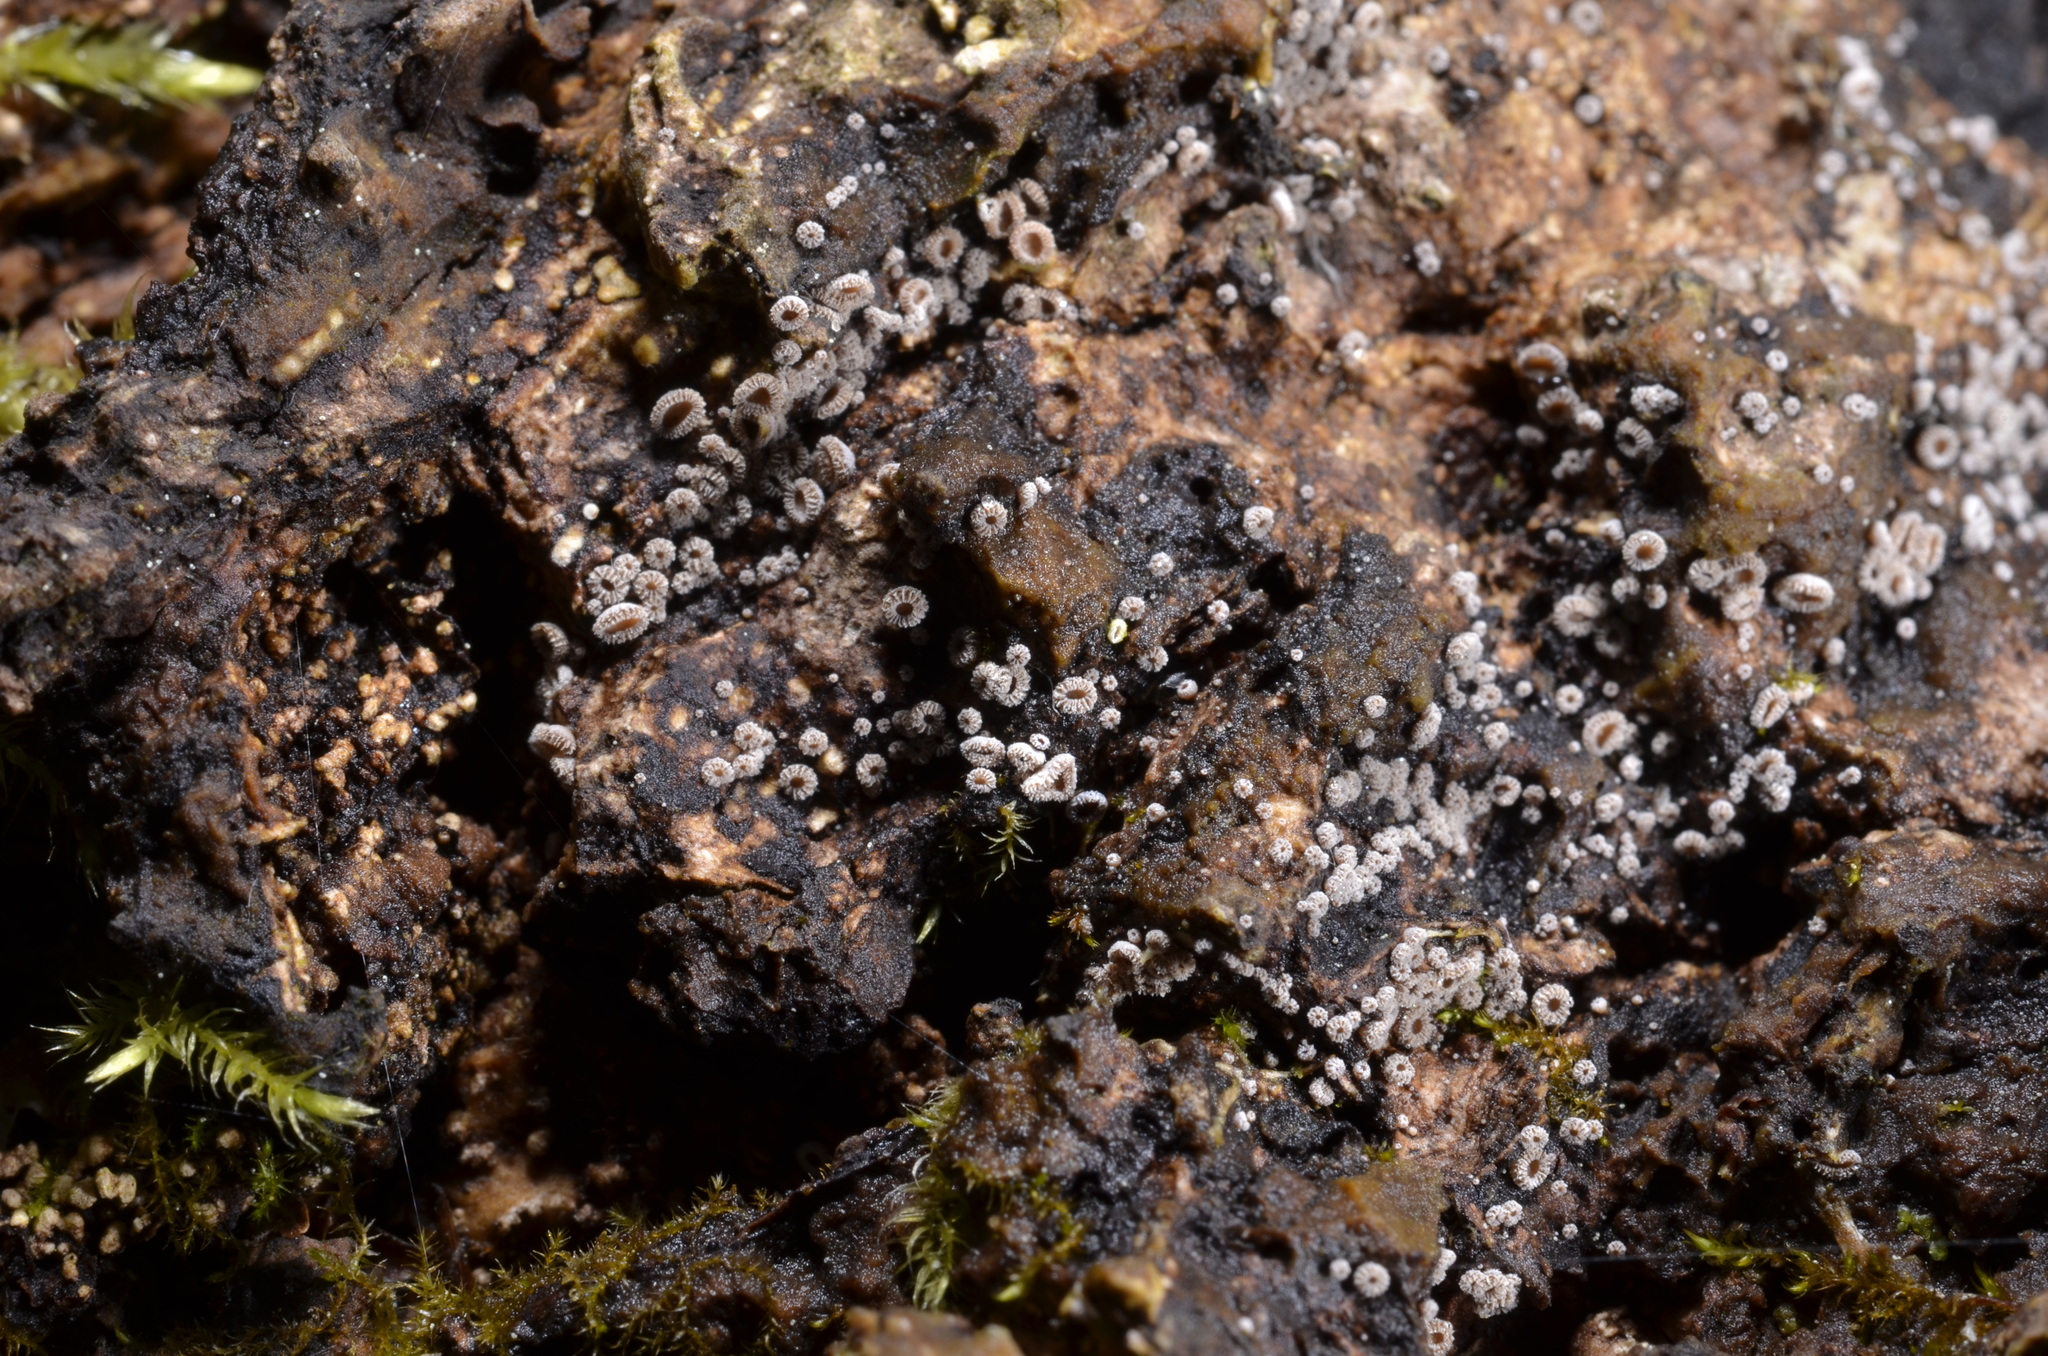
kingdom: Fungi
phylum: Ascomycota
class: Leotiomycetes
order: Helotiales
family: Lachnaceae
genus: Lachnum
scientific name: Lachnum corticale
